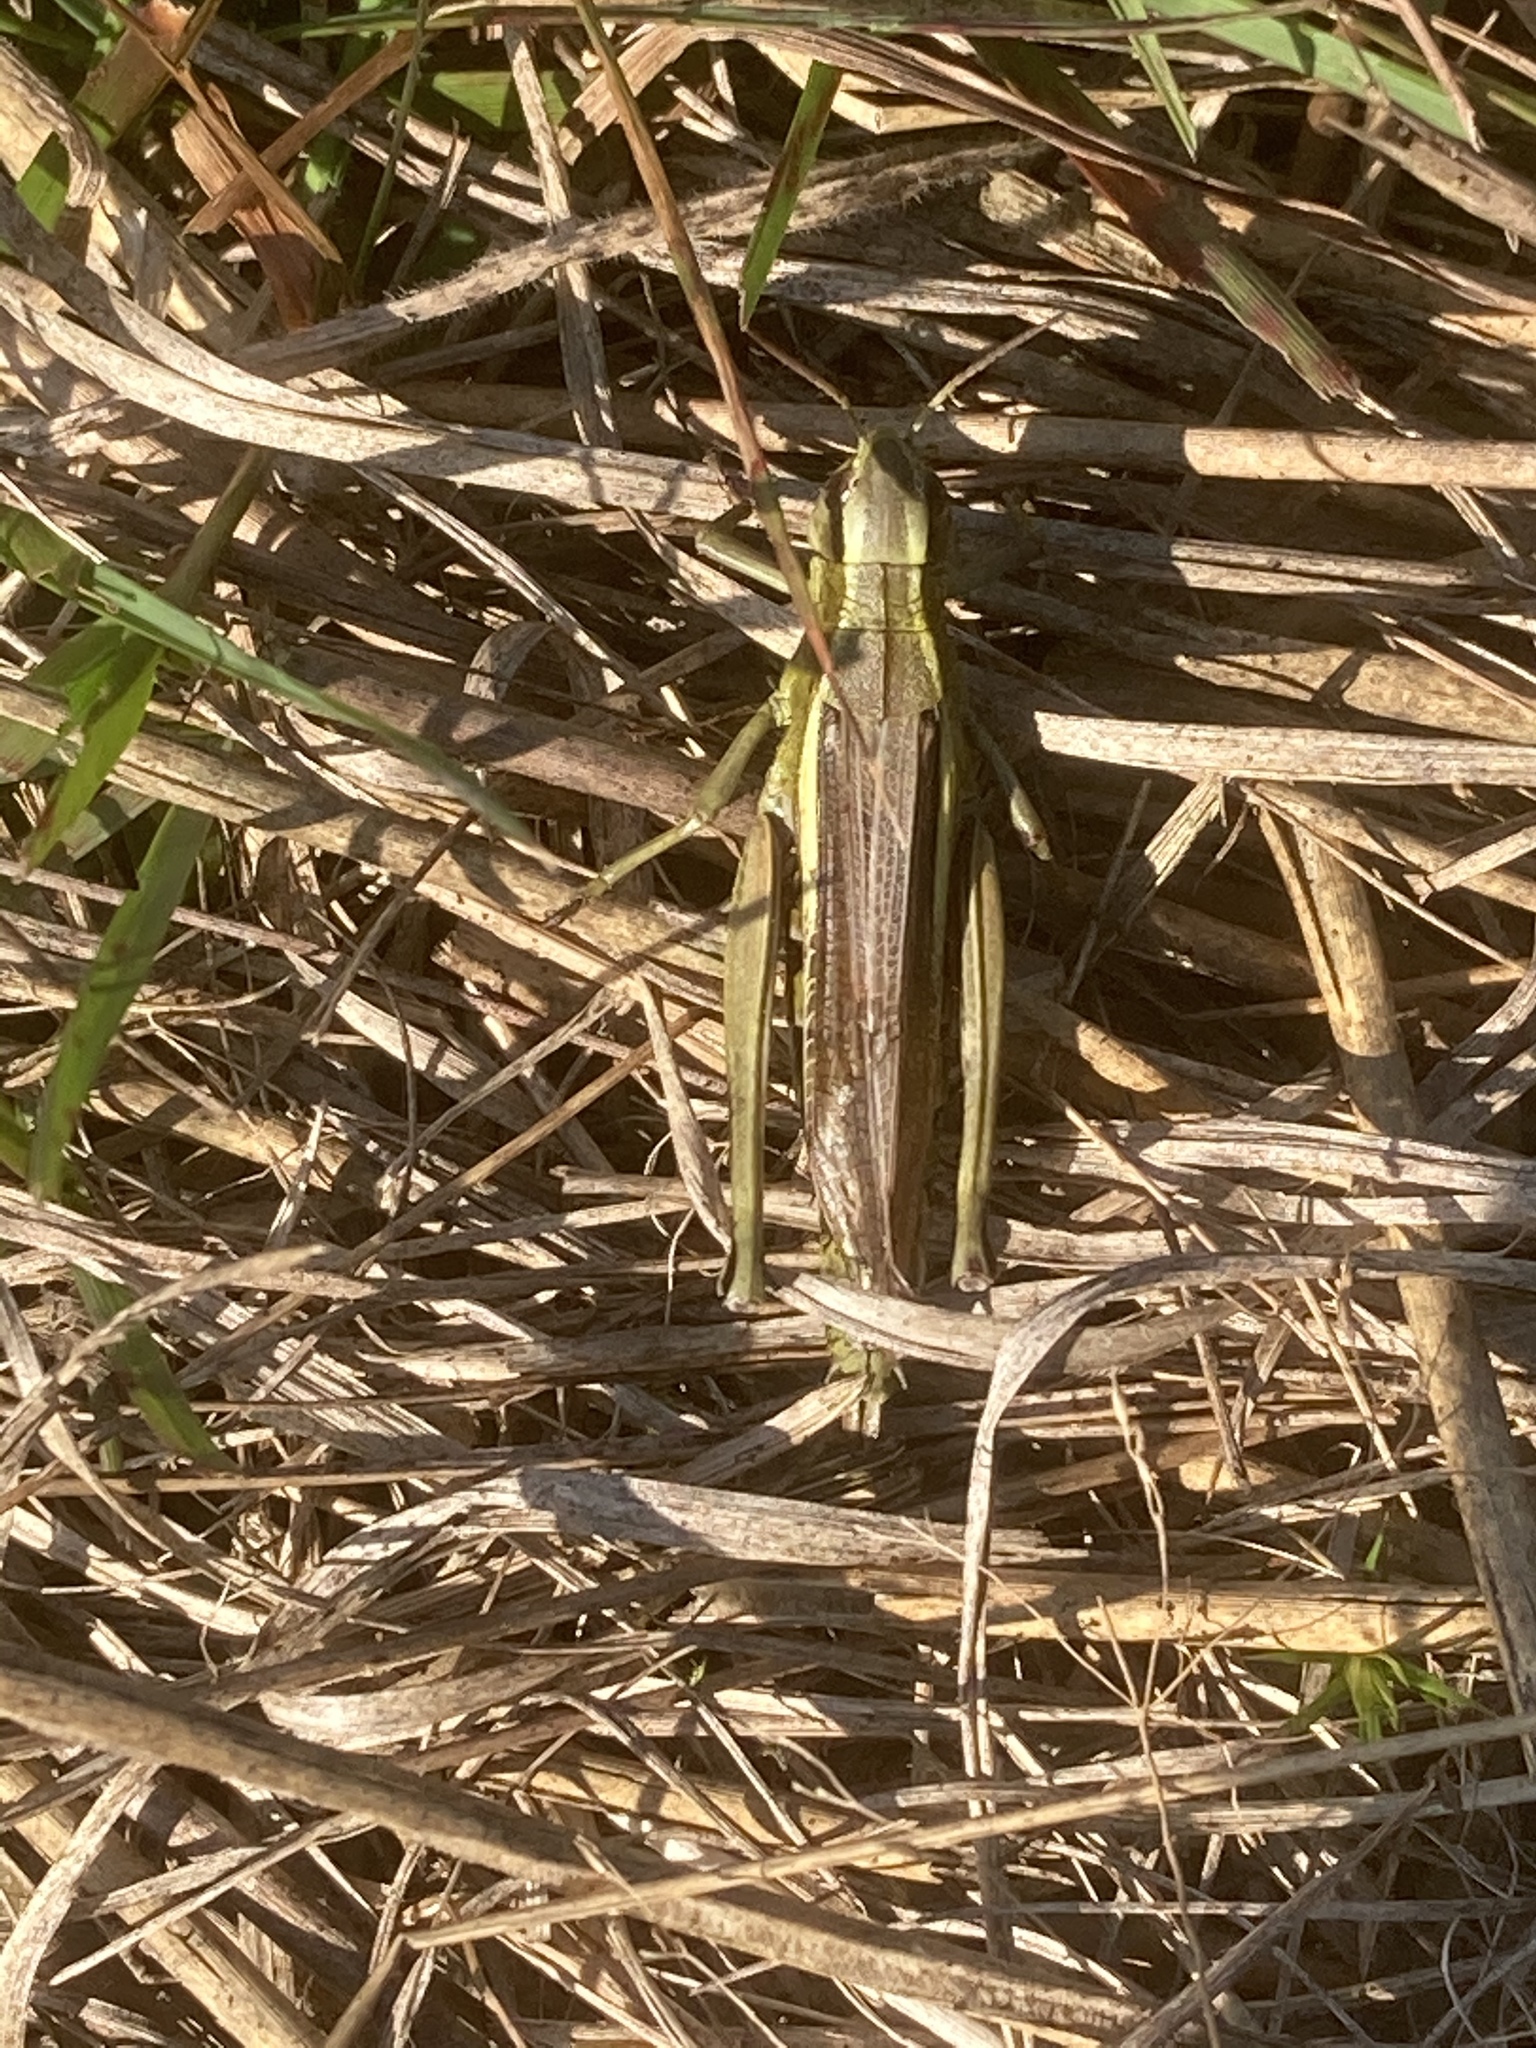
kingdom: Animalia
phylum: Arthropoda
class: Insecta
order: Orthoptera
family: Acrididae
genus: Stethophyma
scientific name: Stethophyma grossum
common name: Large marsh grasshopper
